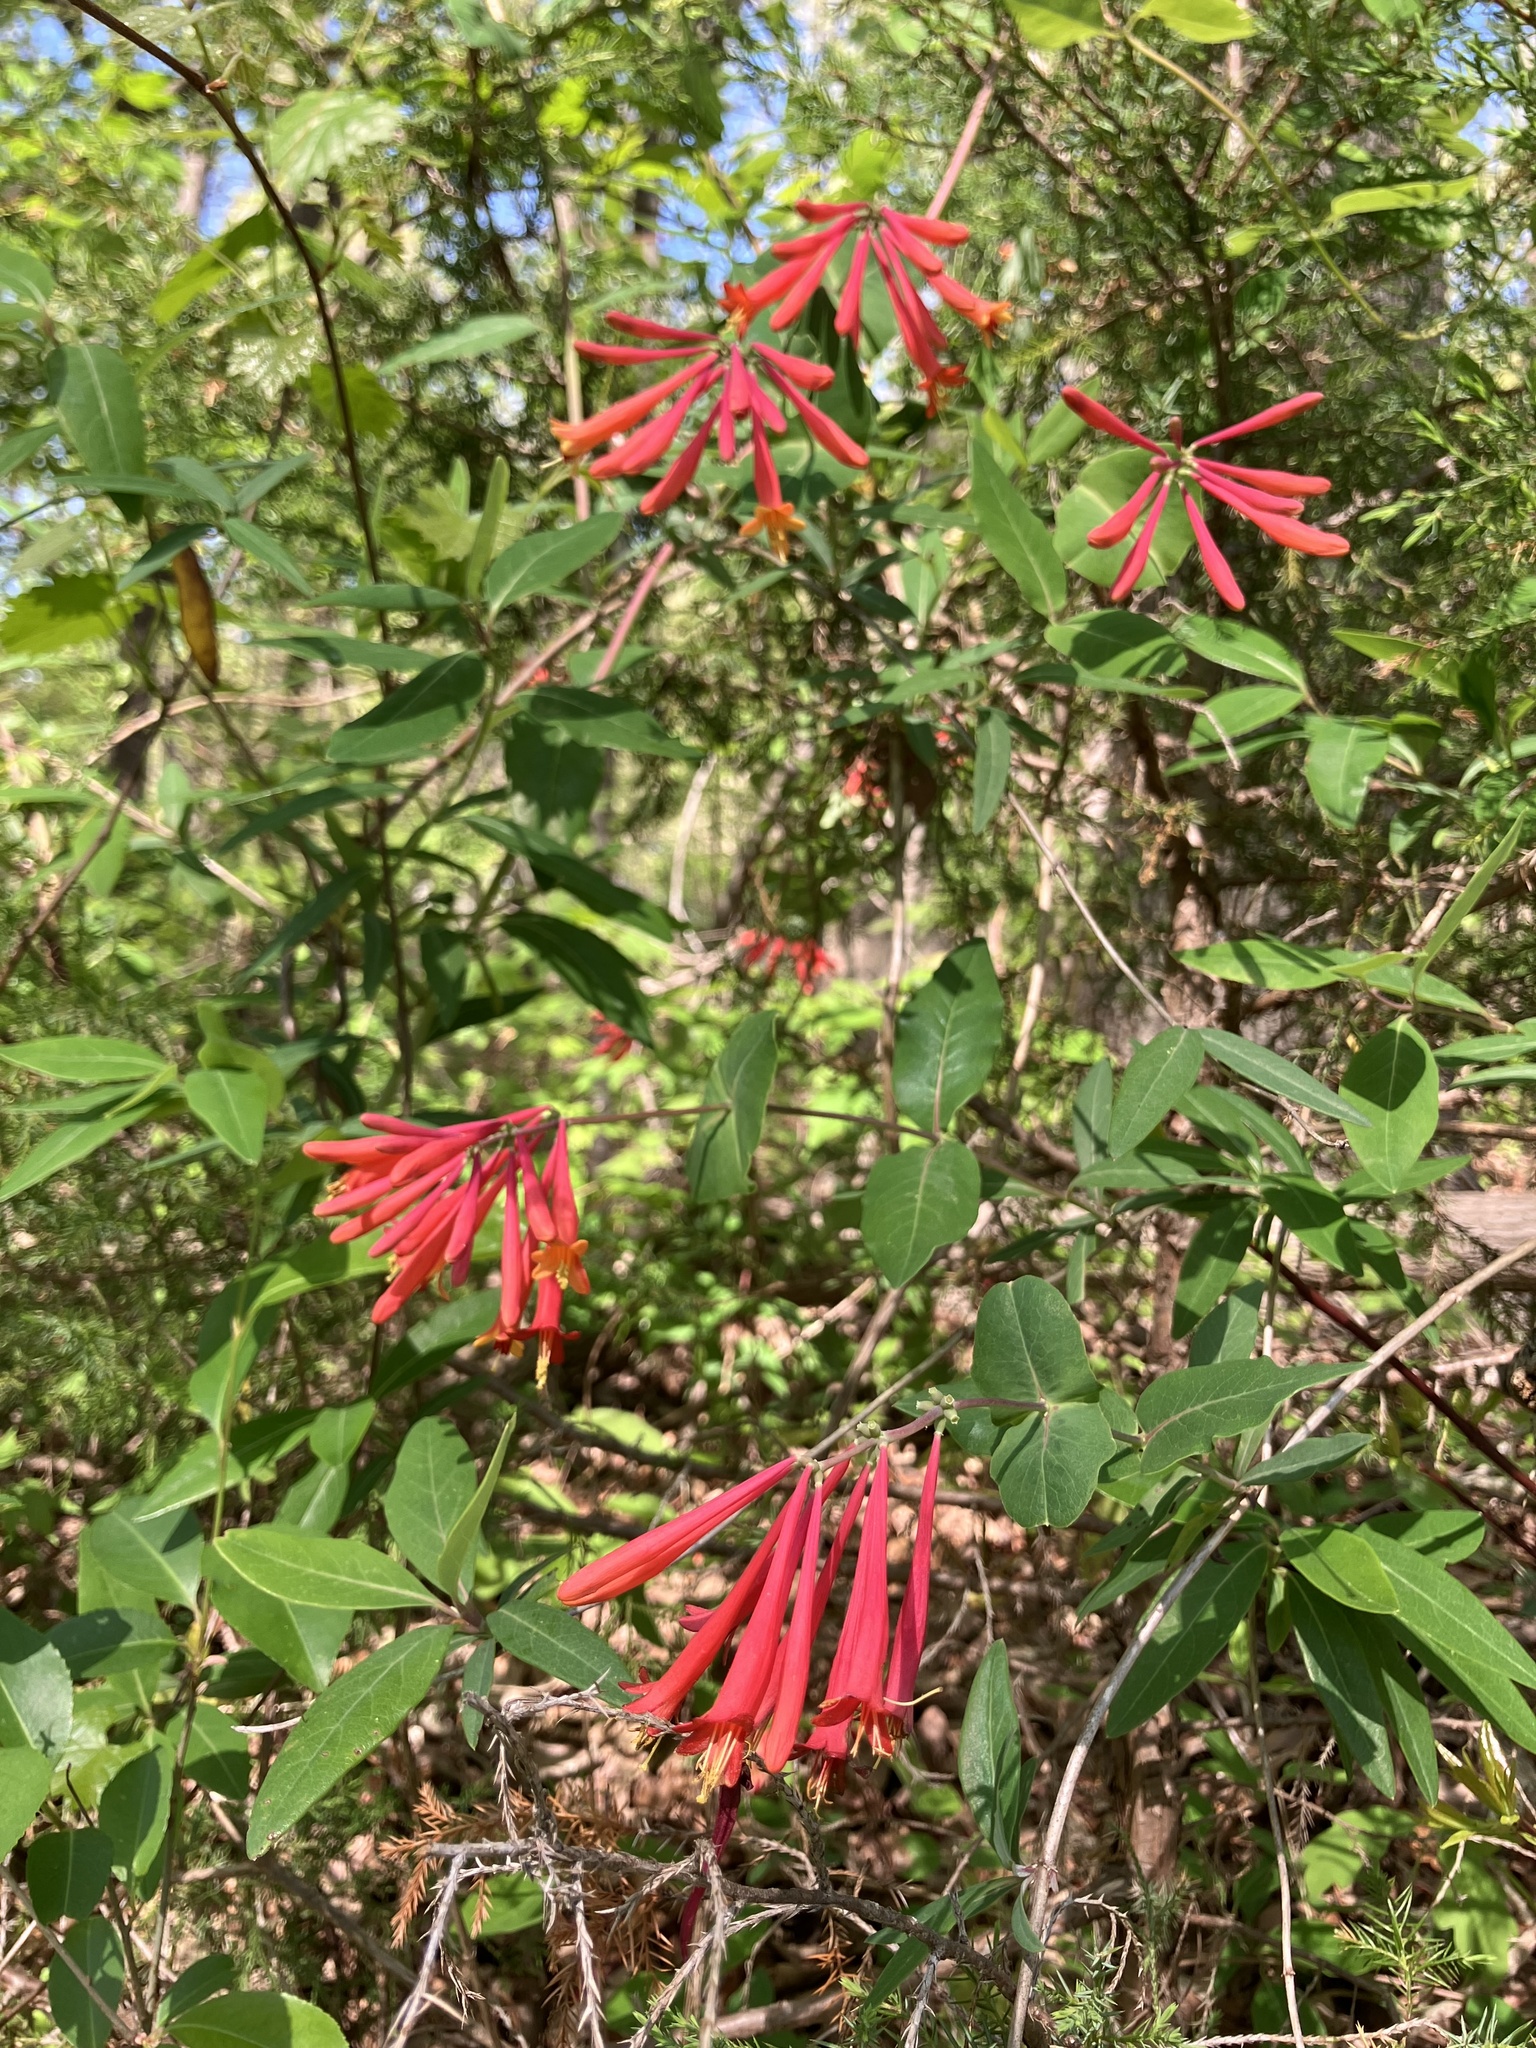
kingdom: Plantae
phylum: Tracheophyta
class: Magnoliopsida
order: Dipsacales
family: Caprifoliaceae
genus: Lonicera
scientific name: Lonicera sempervirens
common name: Coral honeysuckle
